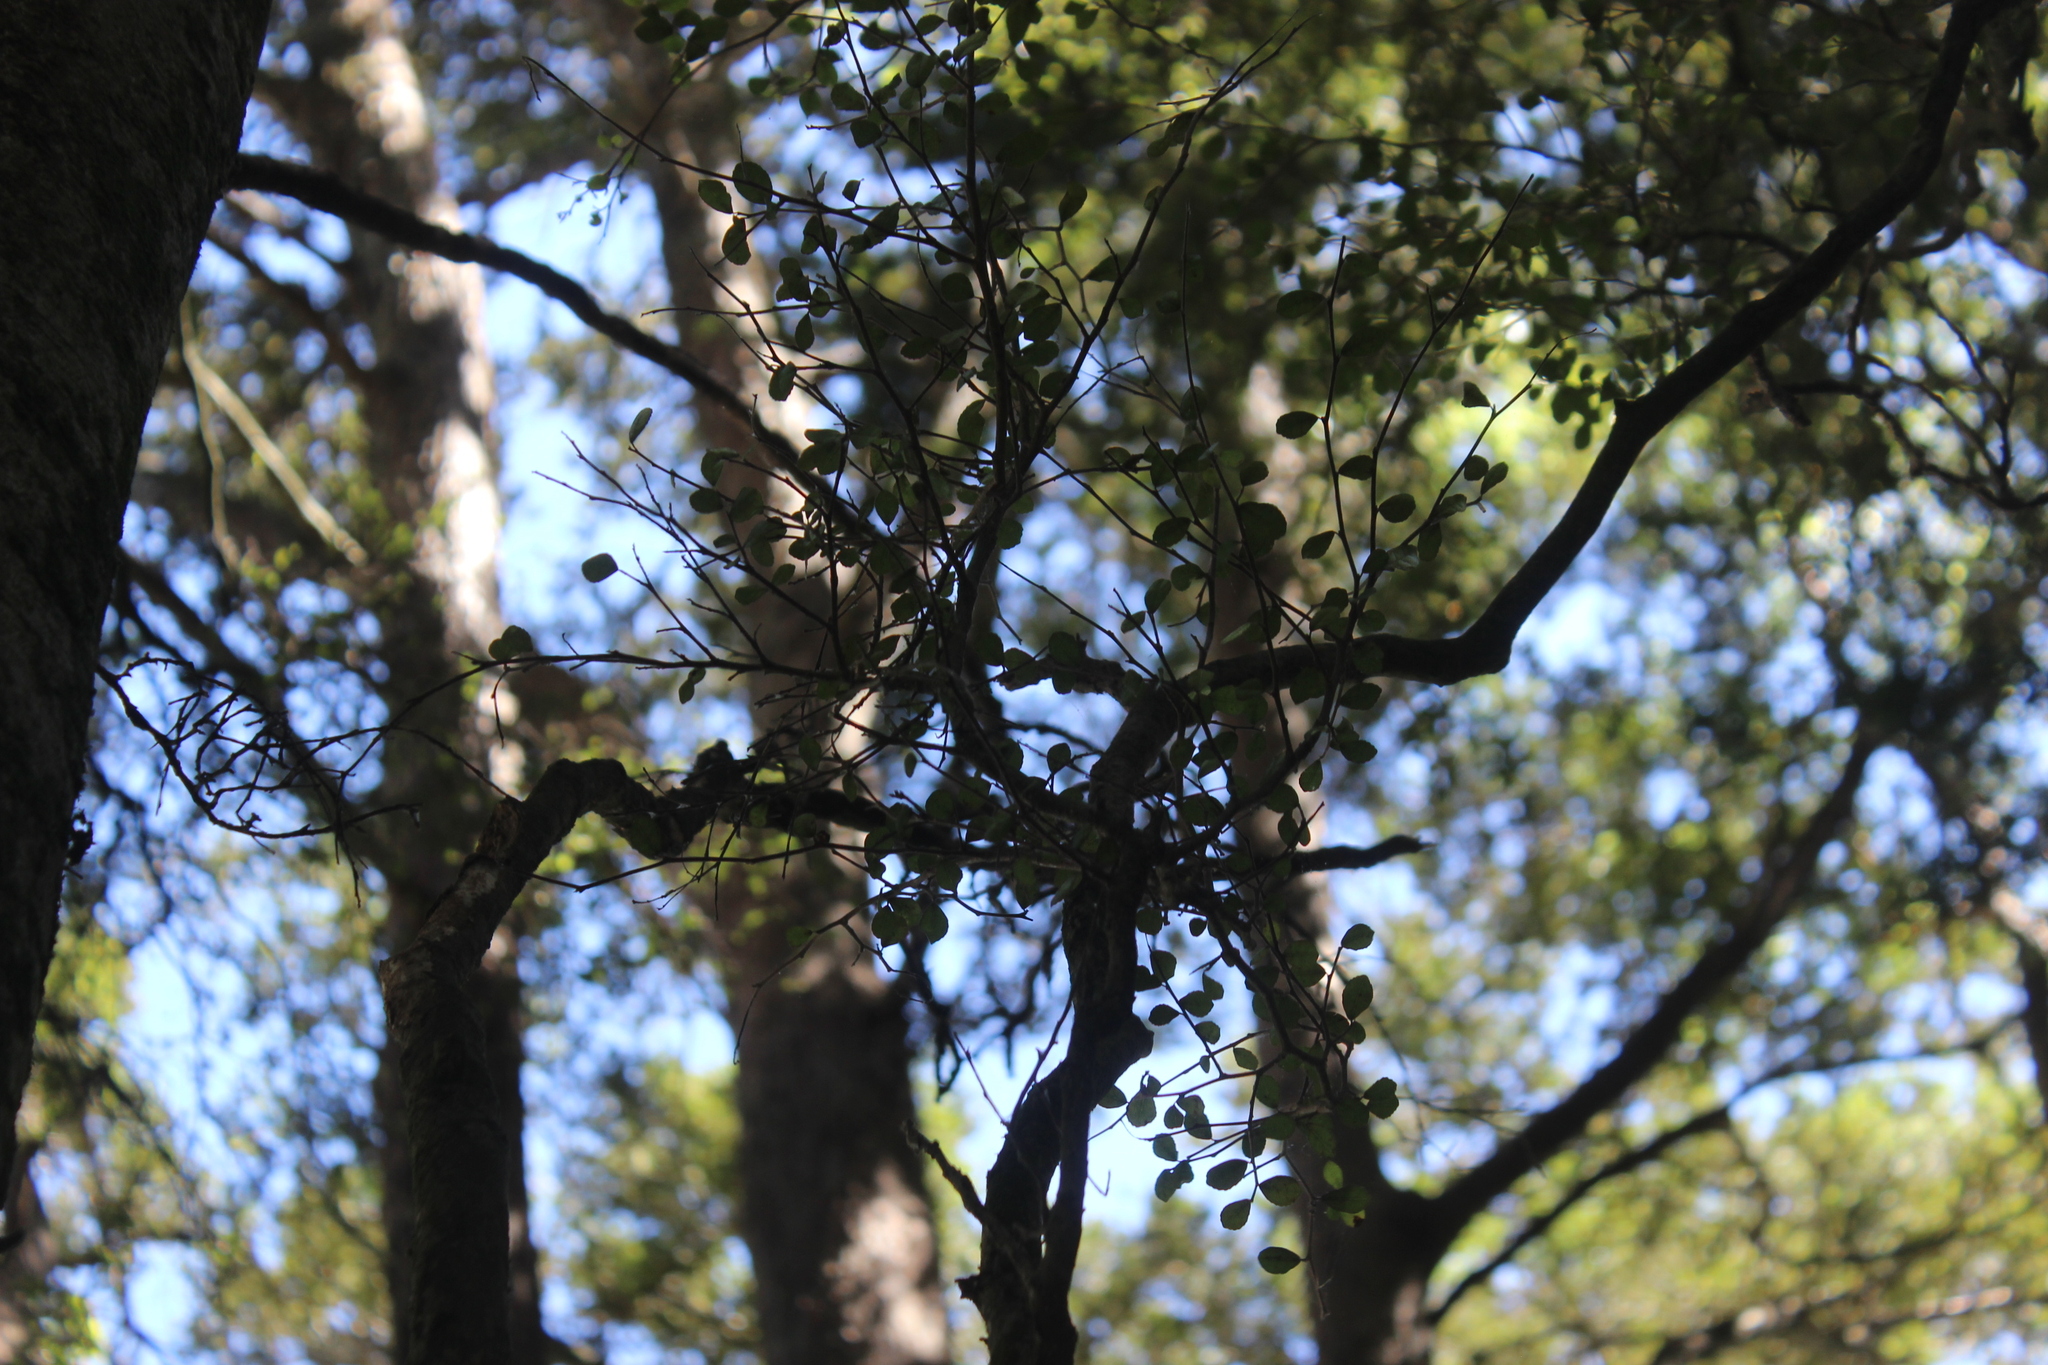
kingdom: Plantae
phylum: Tracheophyta
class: Magnoliopsida
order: Rosales
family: Moraceae
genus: Paratrophis
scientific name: Paratrophis microphylla
